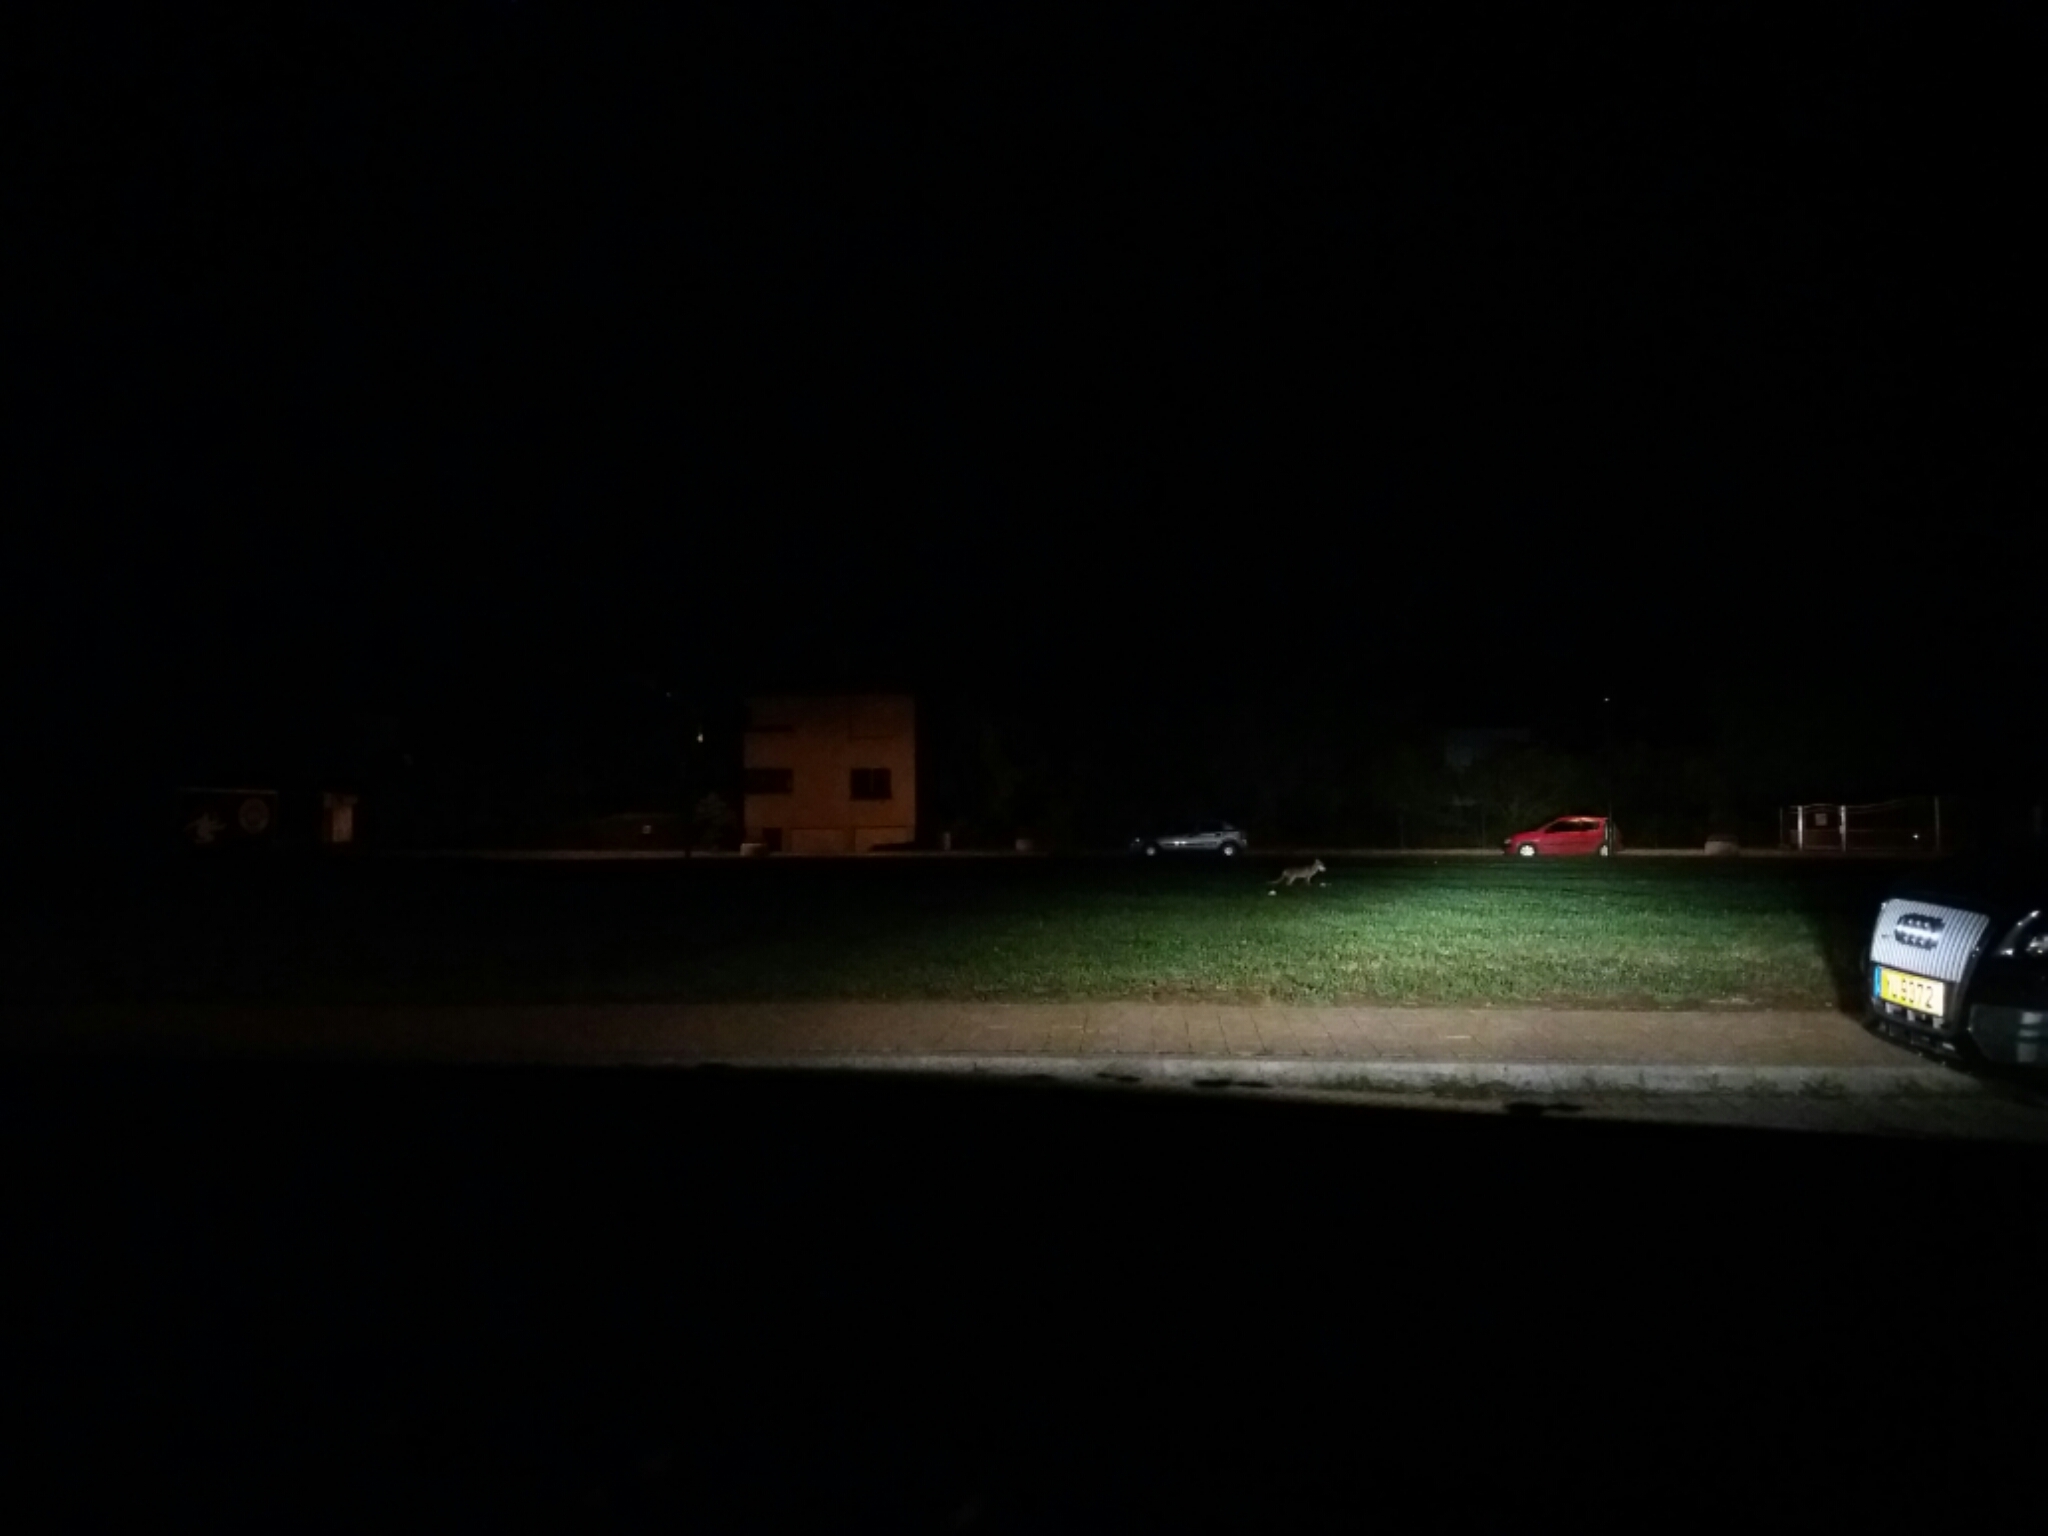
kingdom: Animalia
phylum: Chordata
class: Mammalia
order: Carnivora
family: Canidae
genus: Vulpes
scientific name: Vulpes vulpes
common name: Red fox
